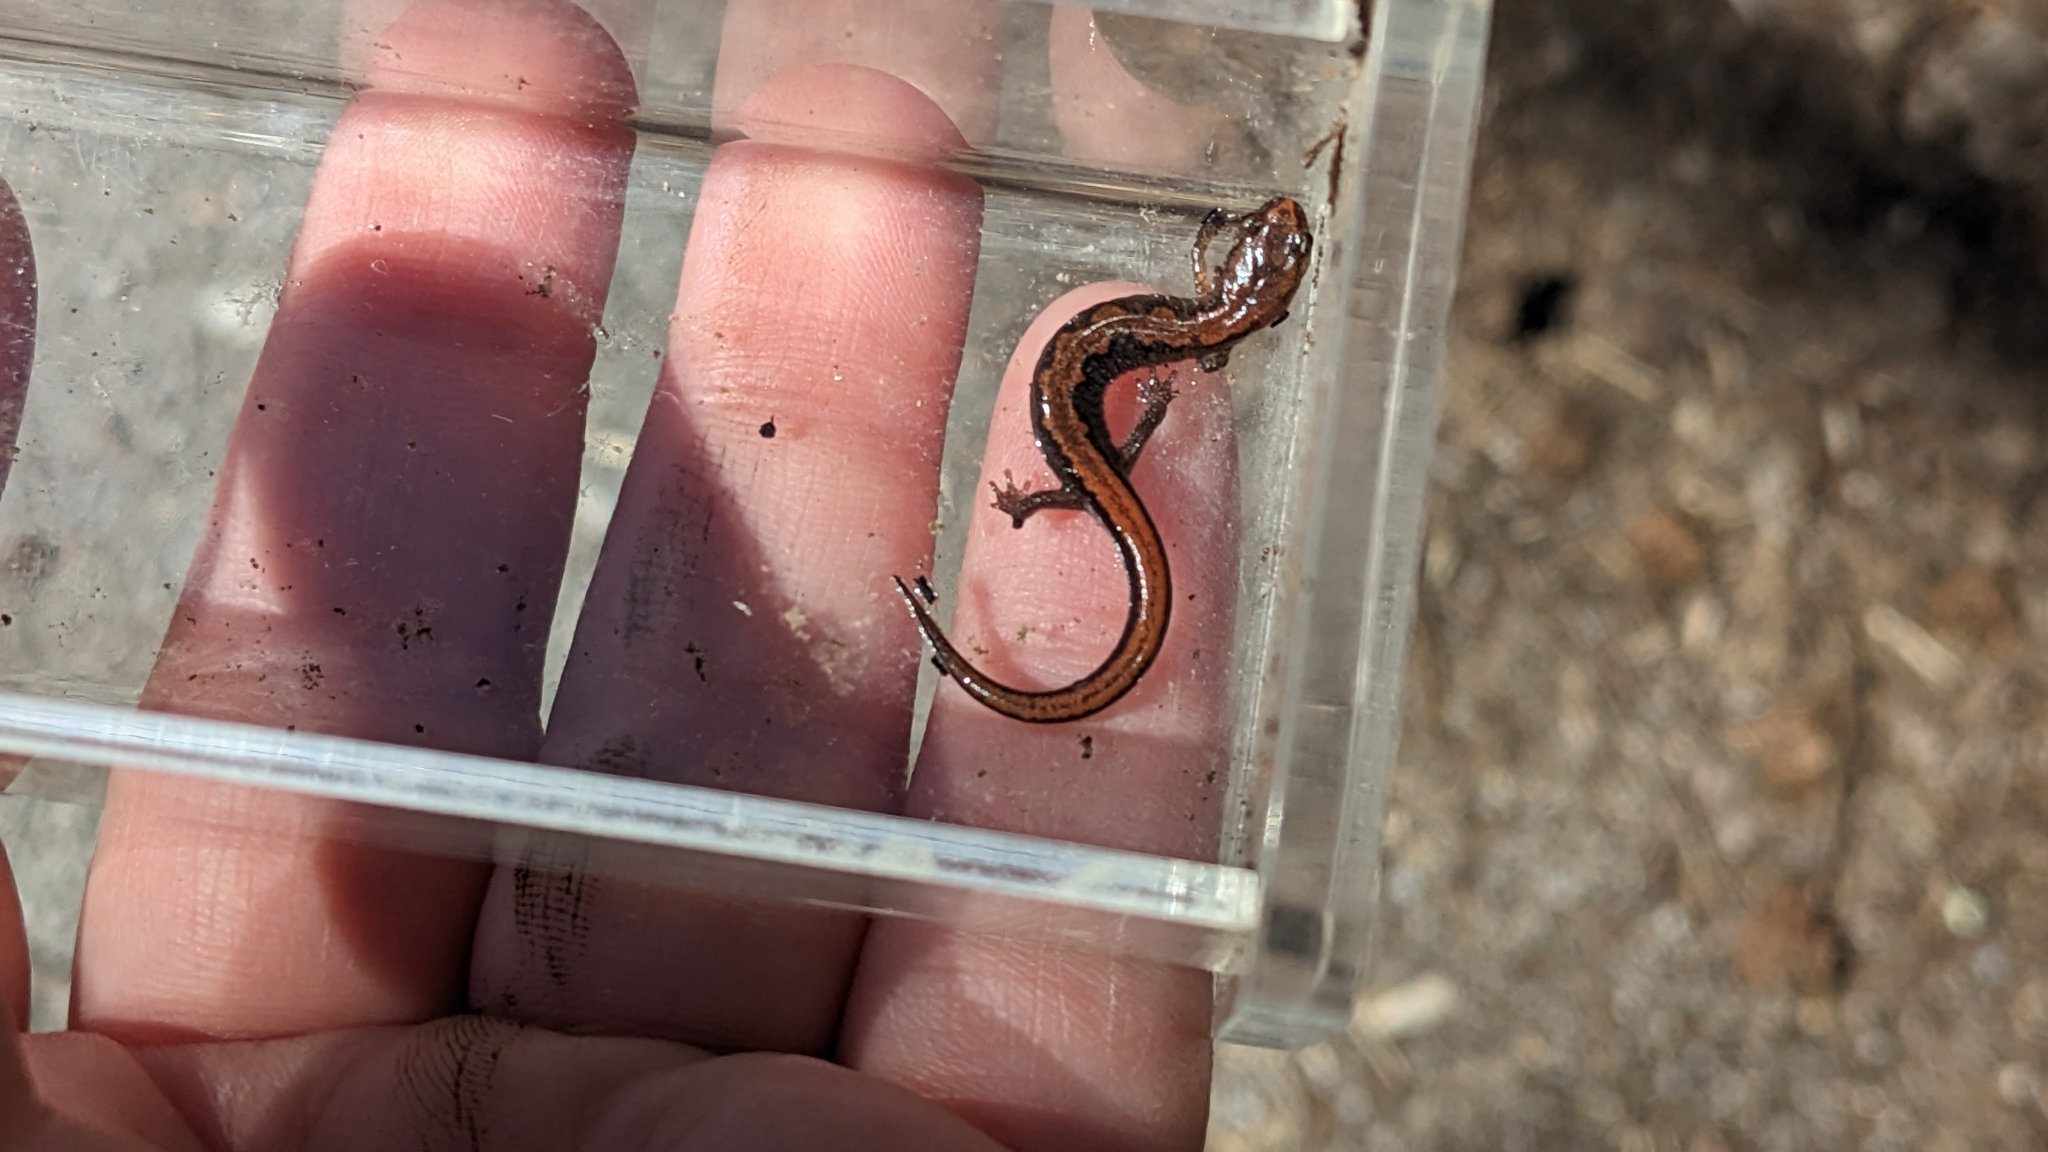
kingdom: Animalia
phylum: Chordata
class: Amphibia
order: Caudata
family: Plethodontidae
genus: Plethodon
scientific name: Plethodon dorsalis
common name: Northern zigzag salamander
